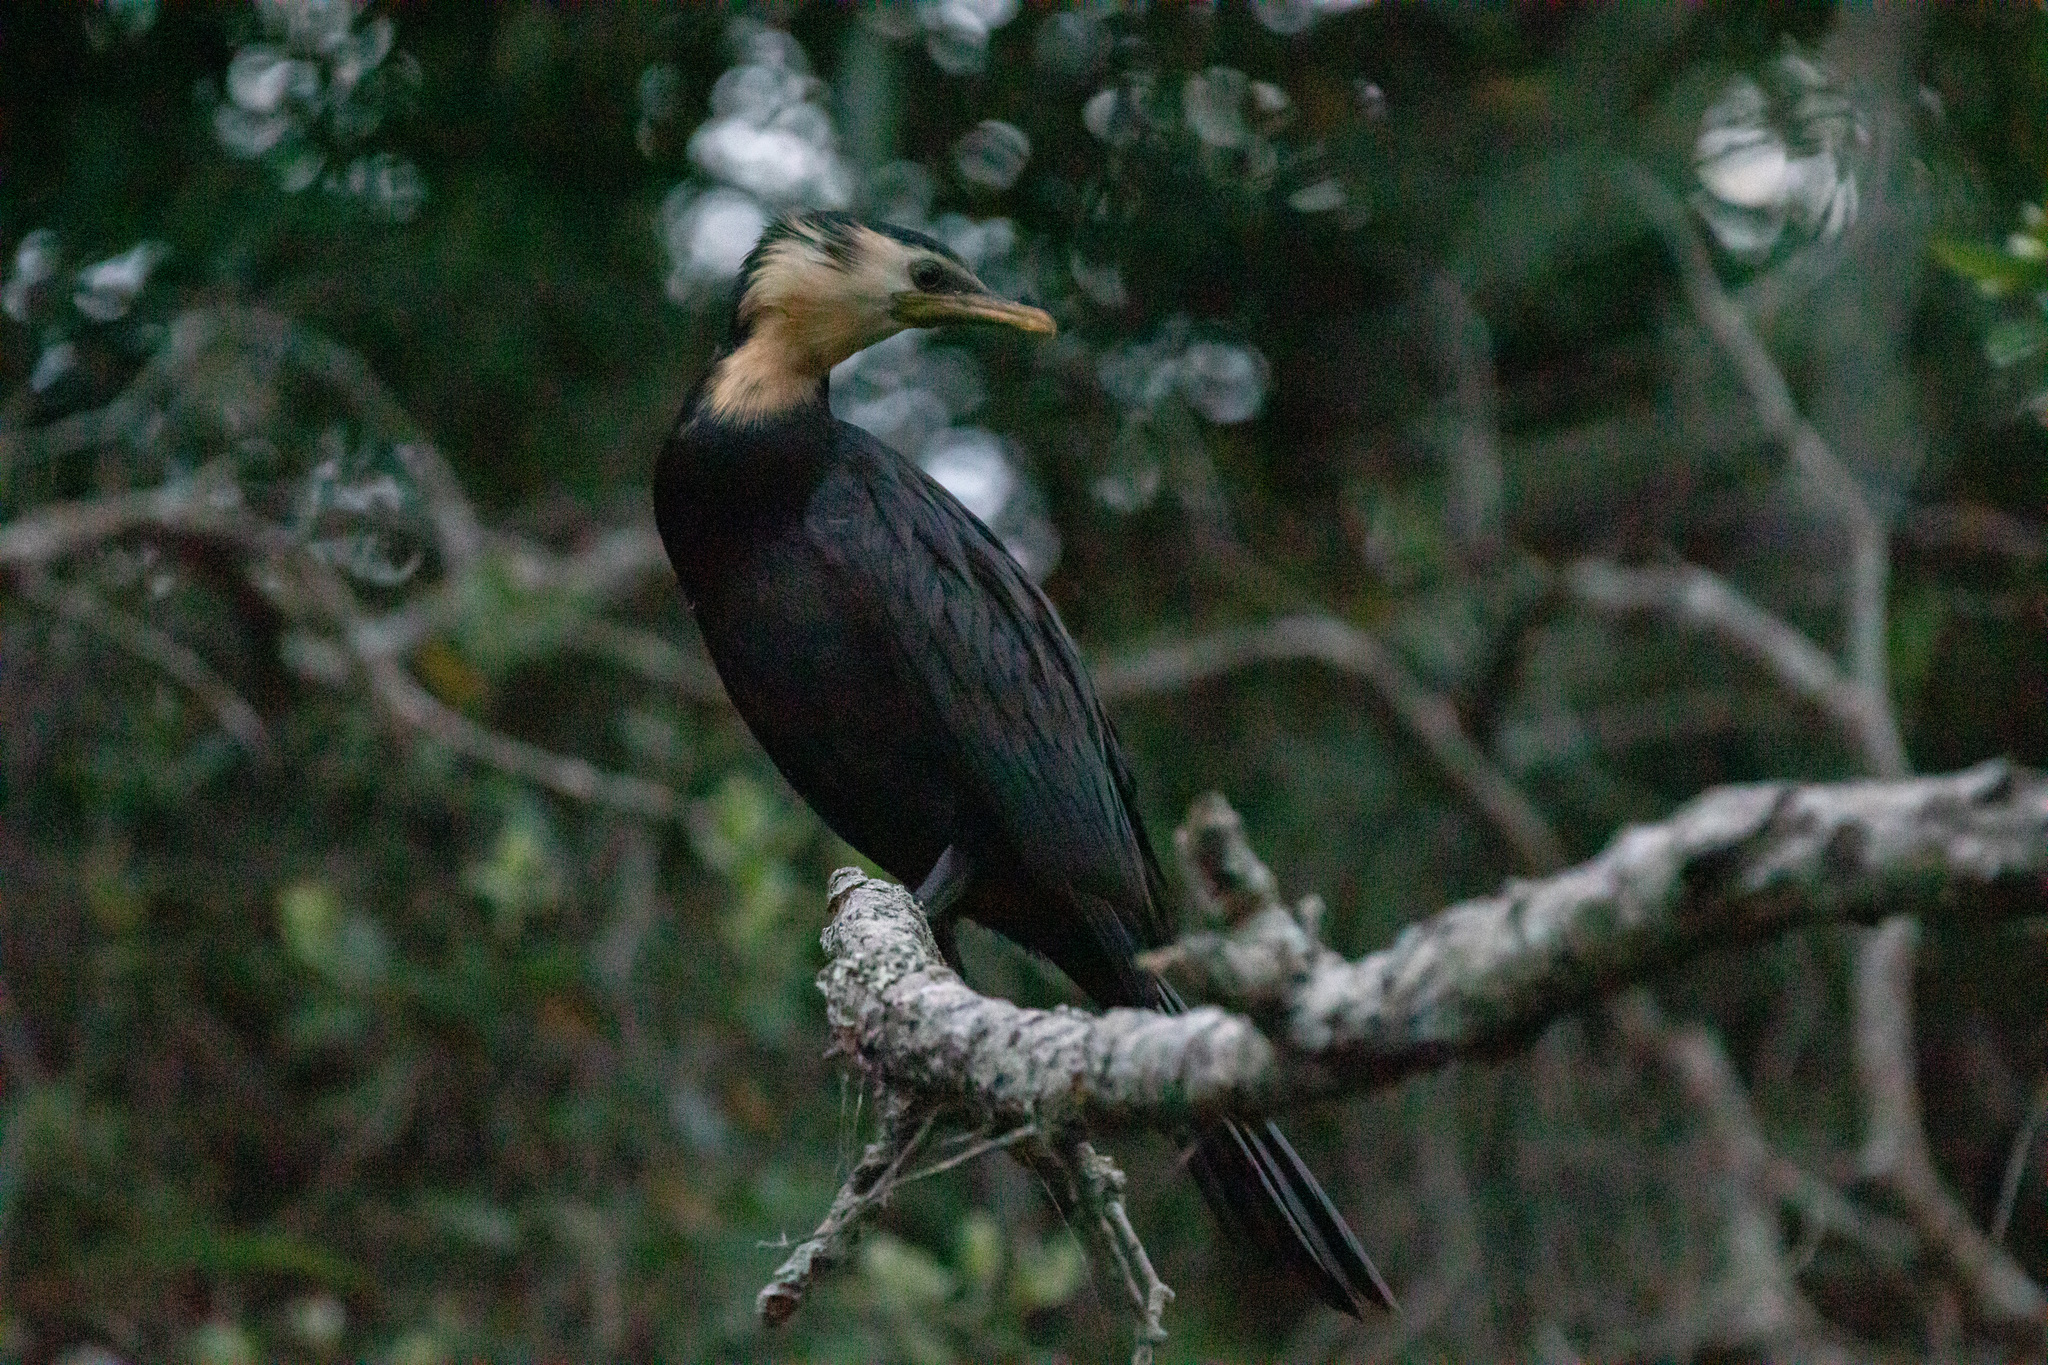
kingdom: Animalia
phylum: Chordata
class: Aves
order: Suliformes
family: Phalacrocoracidae
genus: Microcarbo
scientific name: Microcarbo melanoleucos
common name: Little pied cormorant
